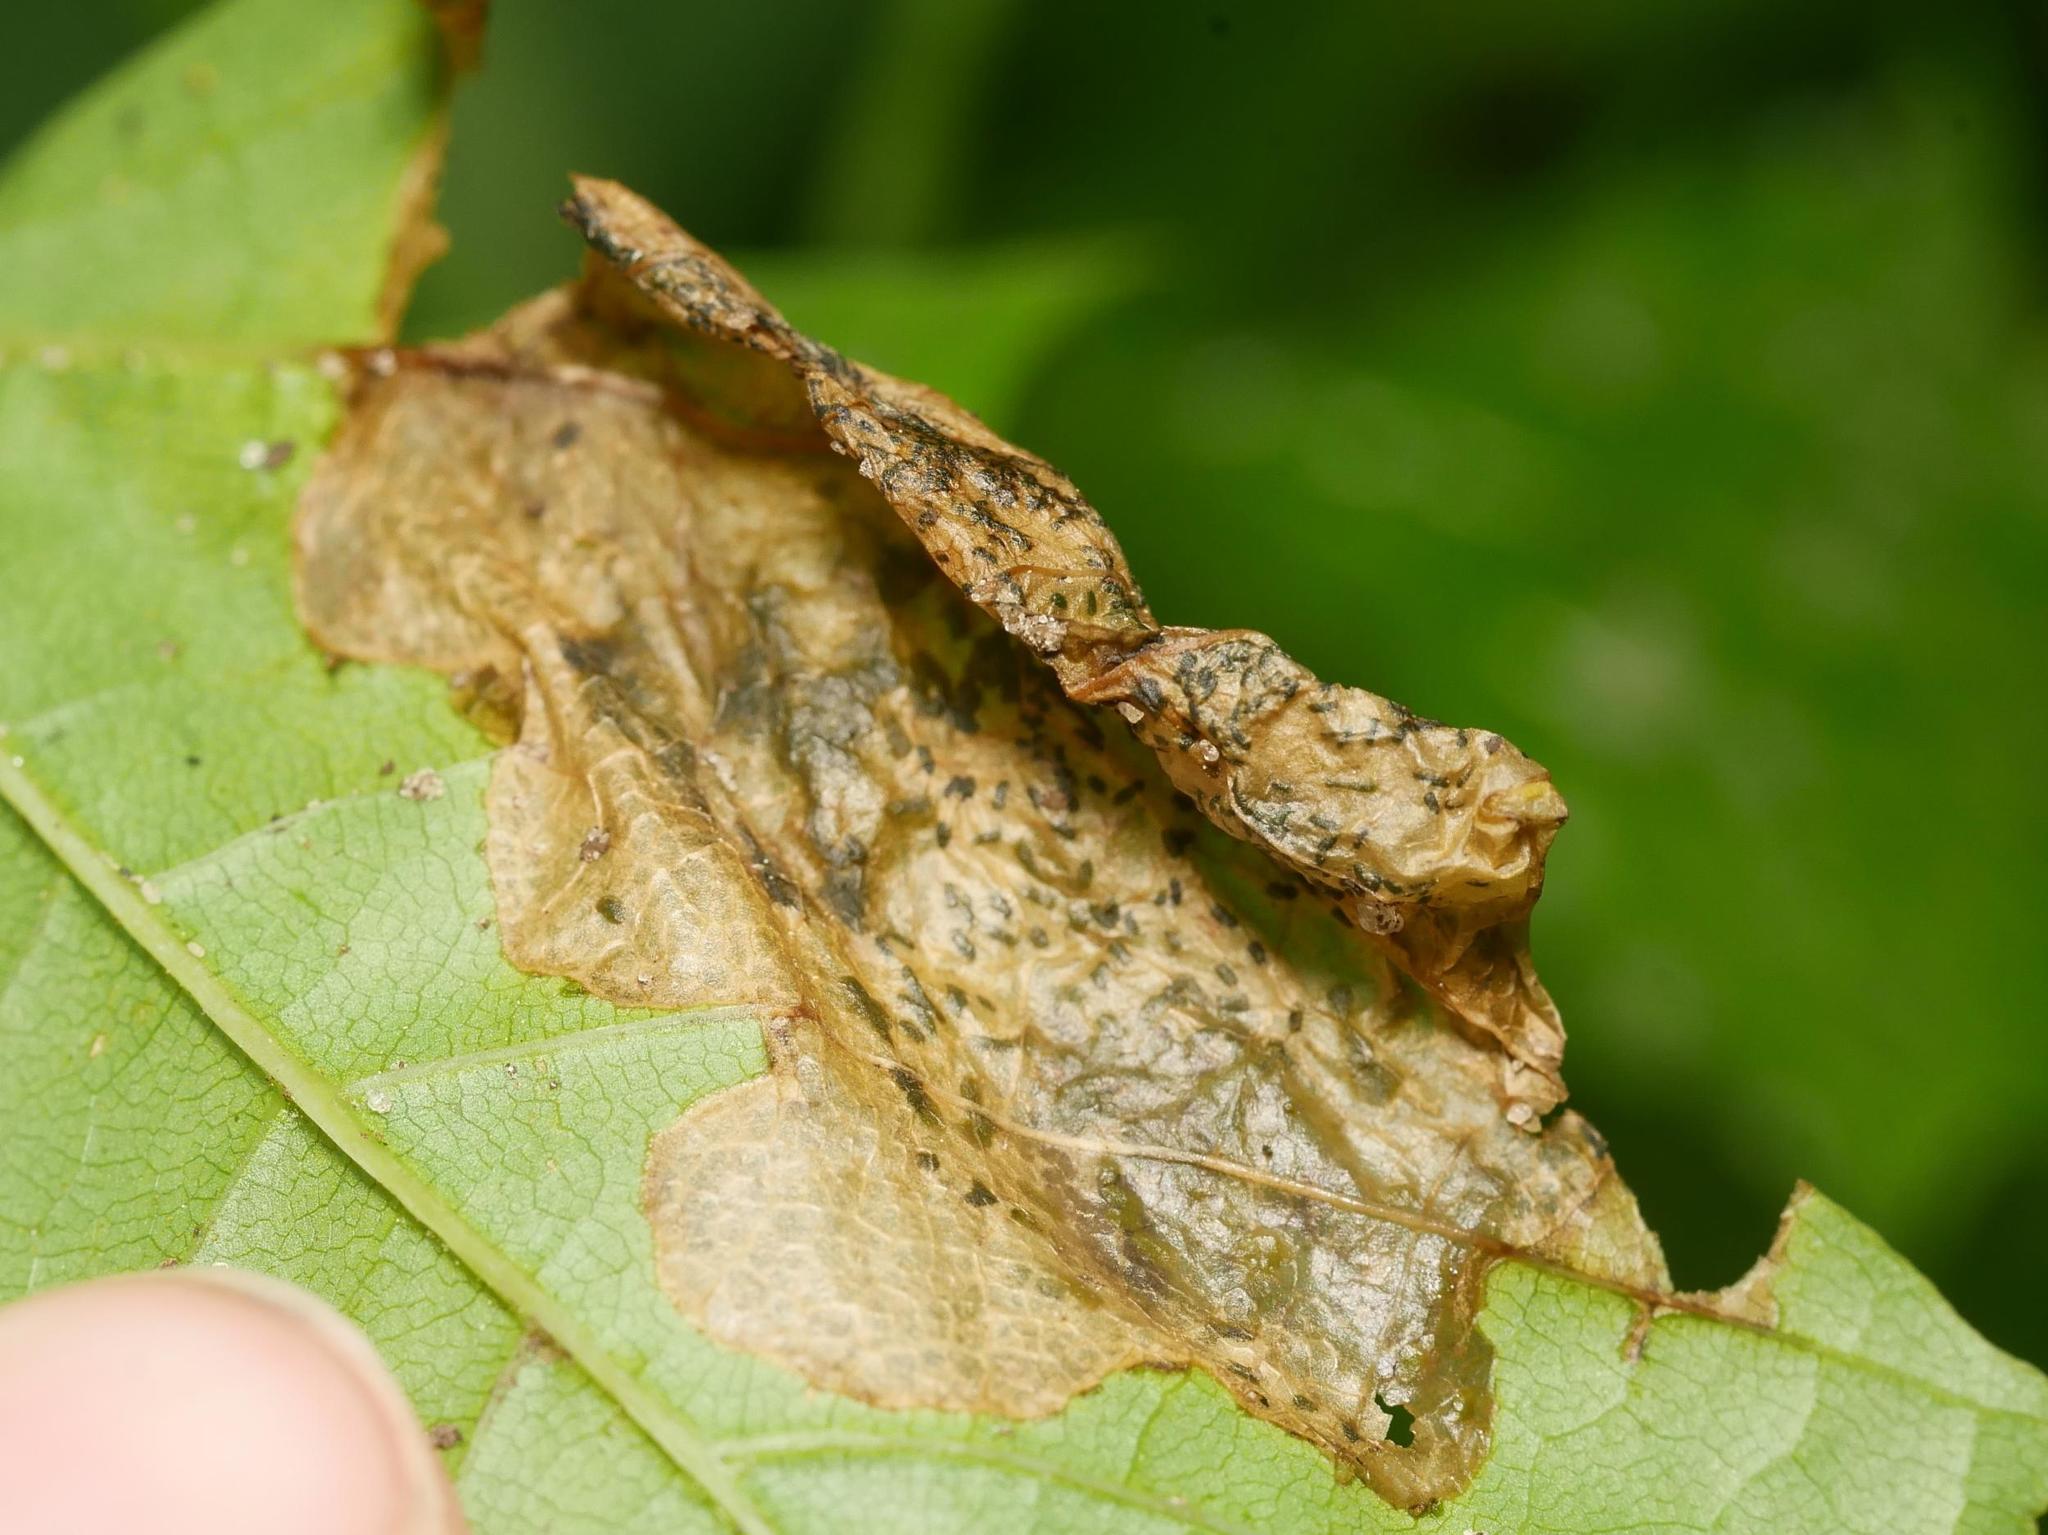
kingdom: Animalia
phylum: Arthropoda
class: Insecta
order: Hymenoptera
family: Tenthredinidae
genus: Hinatara
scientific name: Hinatara recta
